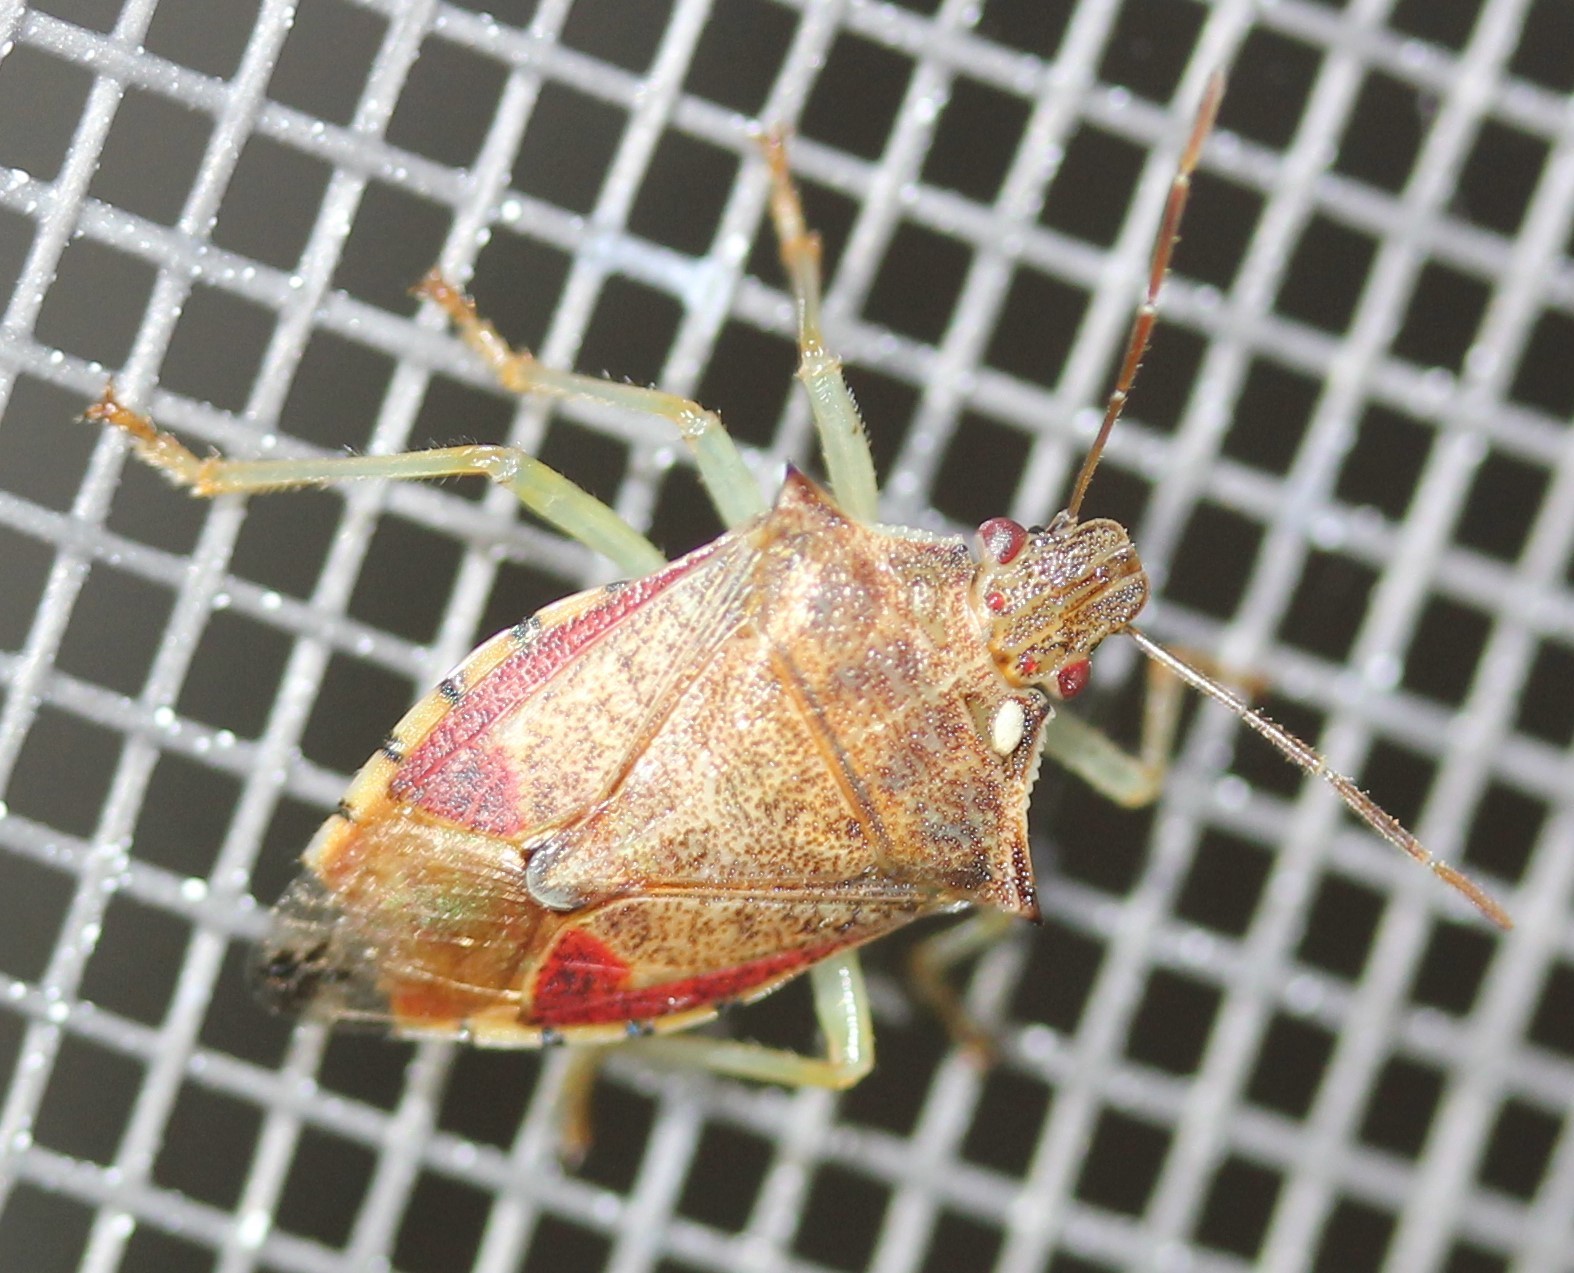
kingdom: Animalia
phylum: Arthropoda
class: Insecta
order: Hemiptera
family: Pentatomidae
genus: Podisus
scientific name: Podisus brevispinus
